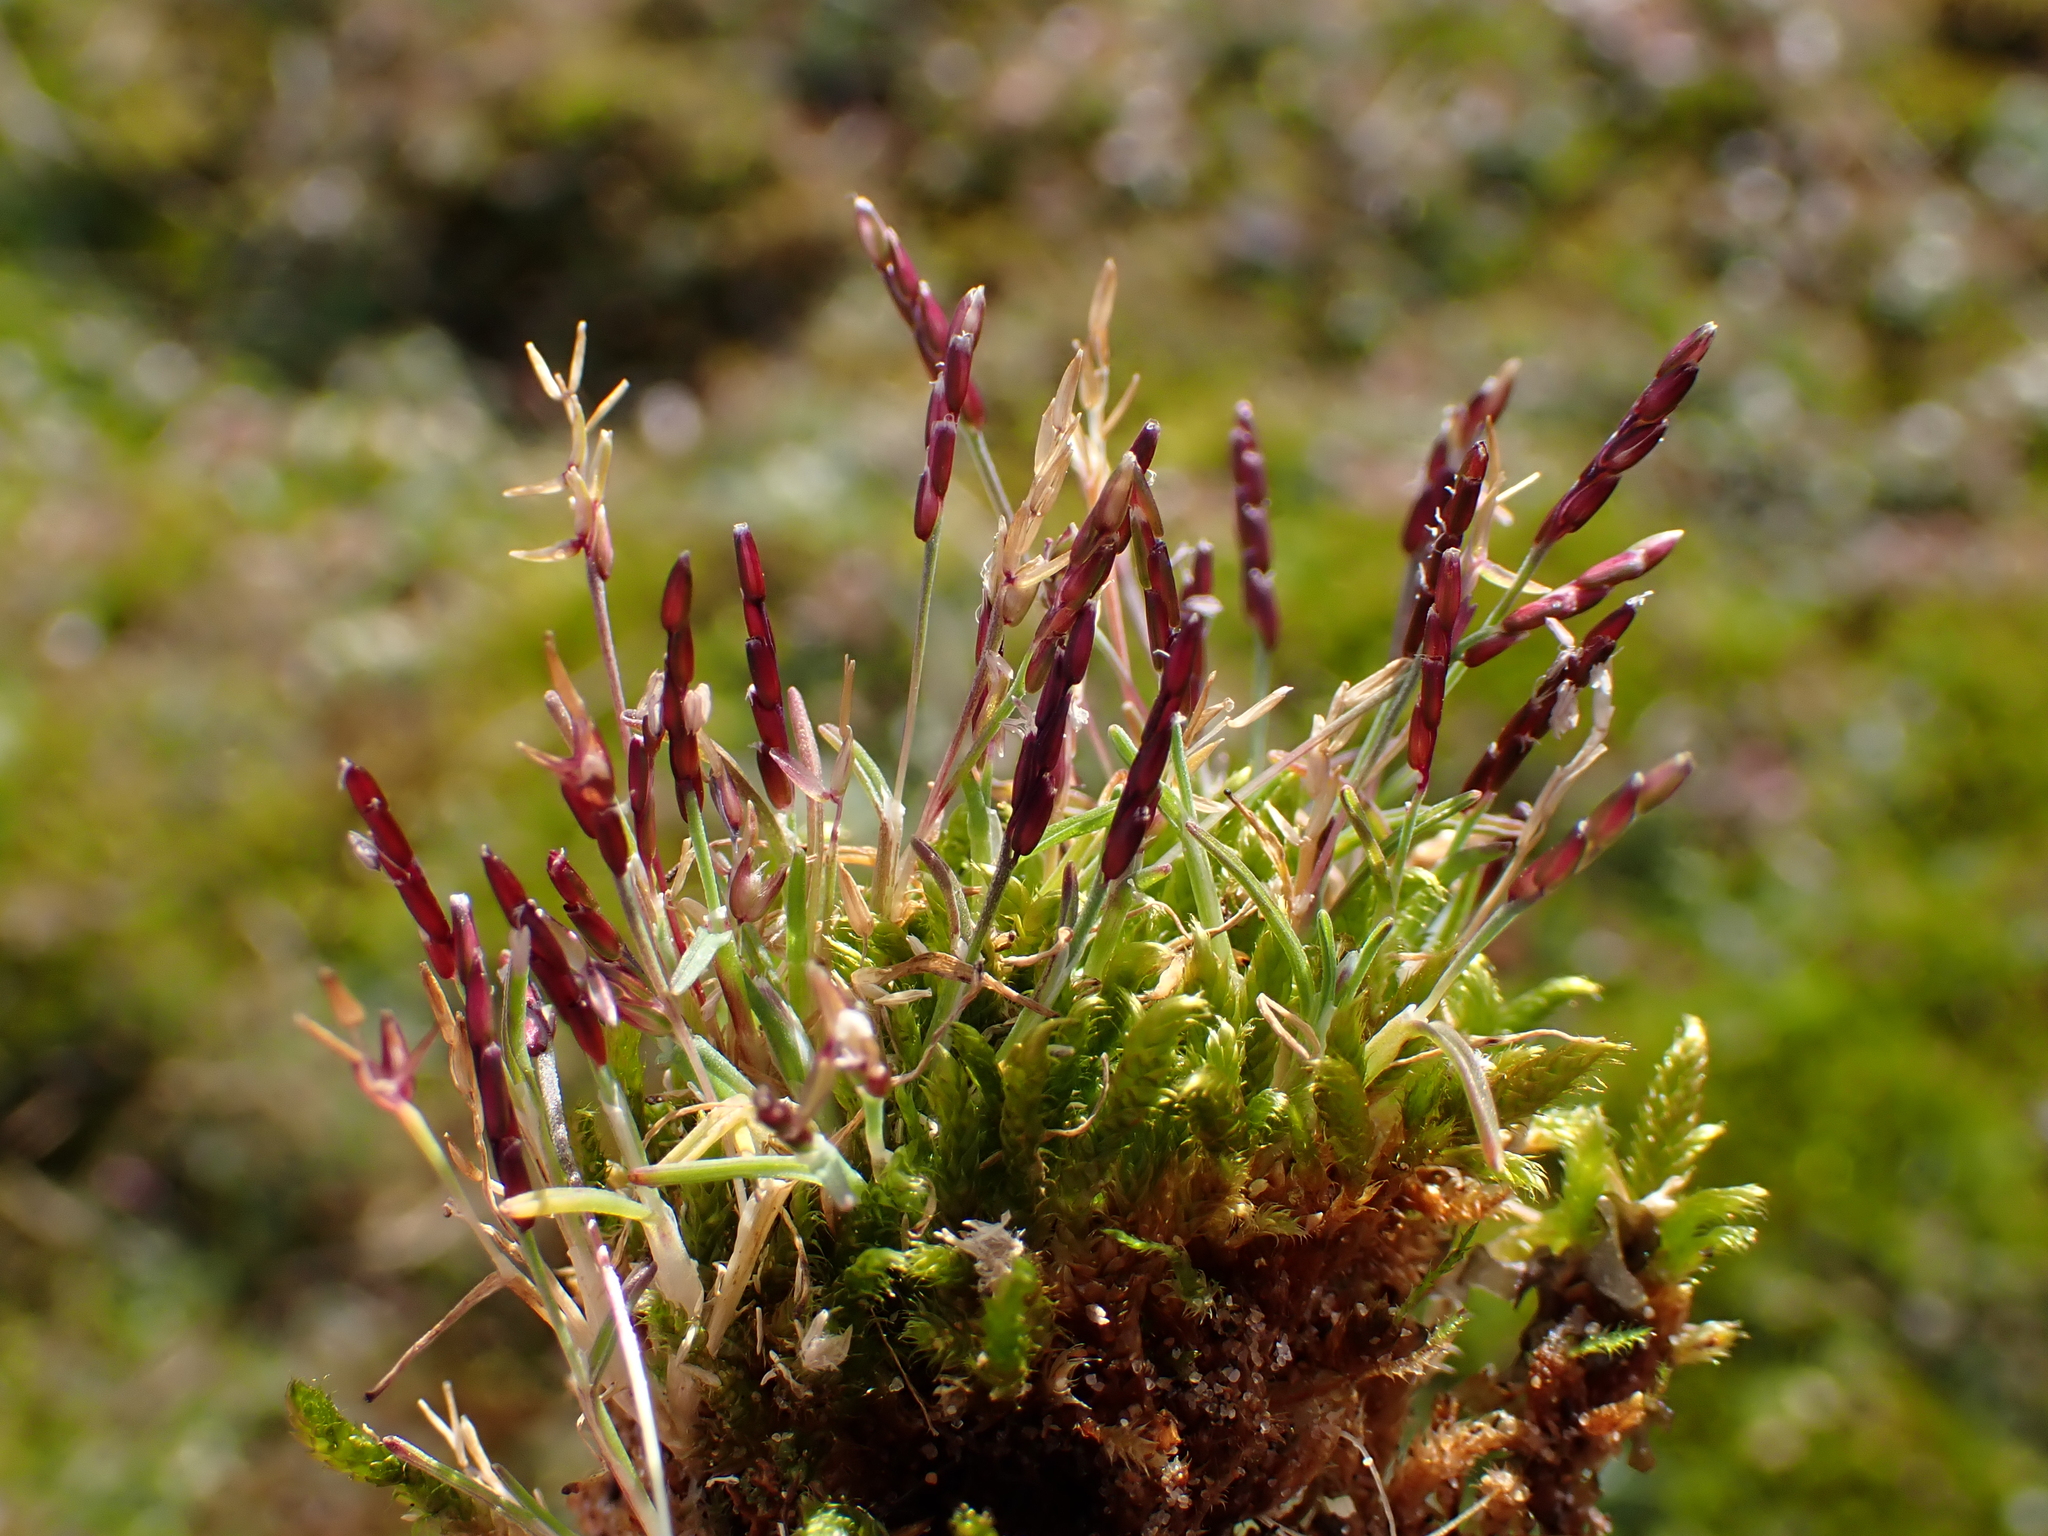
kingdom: Plantae
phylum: Tracheophyta
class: Liliopsida
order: Poales
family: Poaceae
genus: Mibora
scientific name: Mibora minima
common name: Early sand-grass
